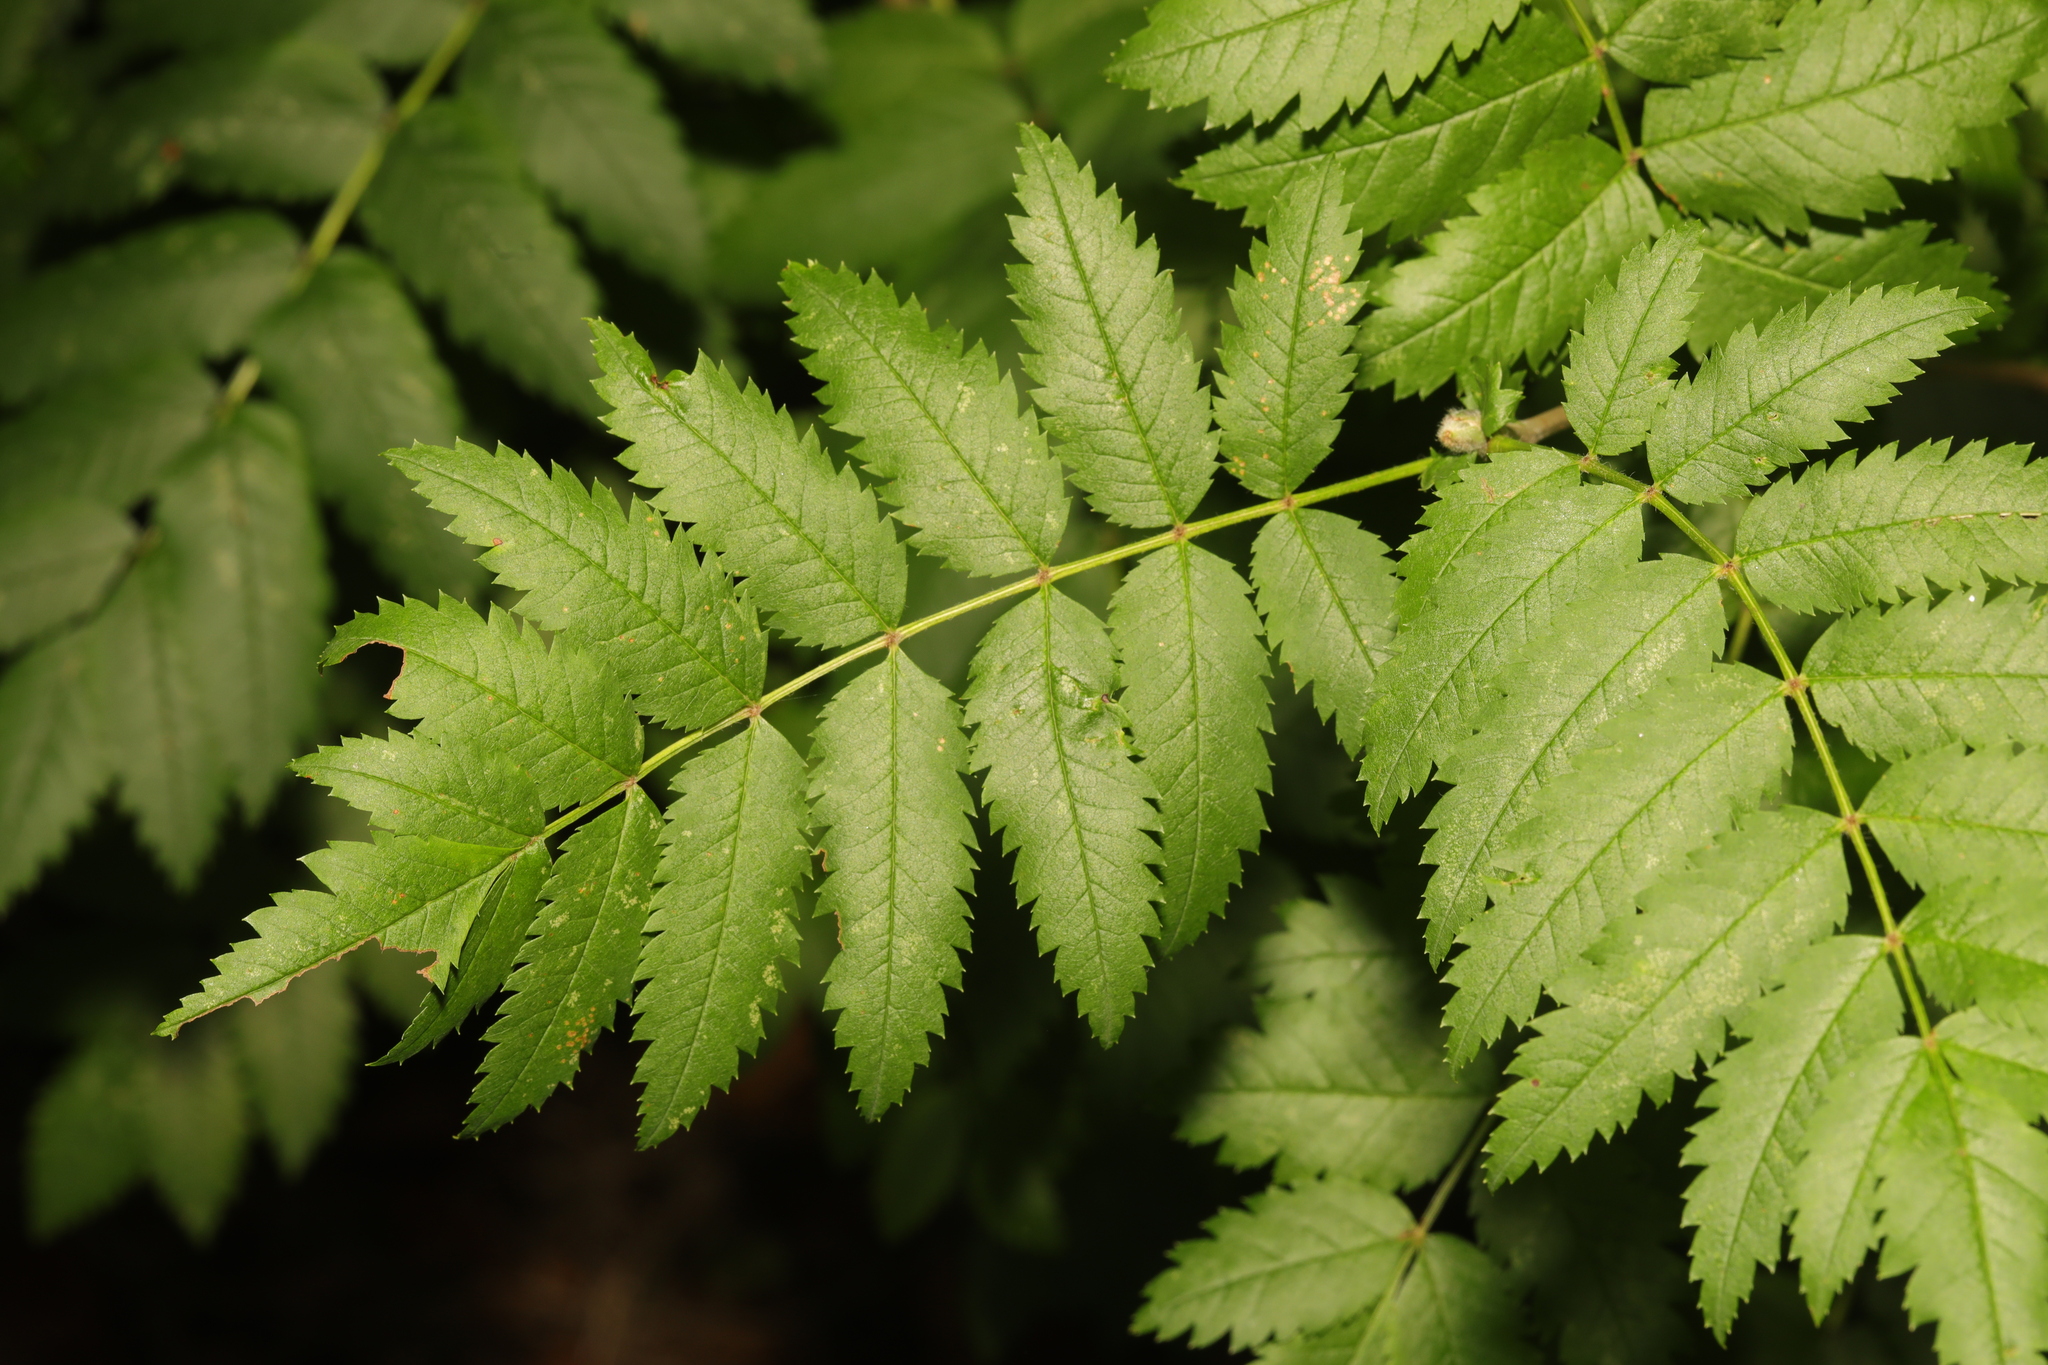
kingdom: Plantae
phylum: Tracheophyta
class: Magnoliopsida
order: Rosales
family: Rosaceae
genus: Sorbus
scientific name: Sorbus aucuparia
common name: Rowan
